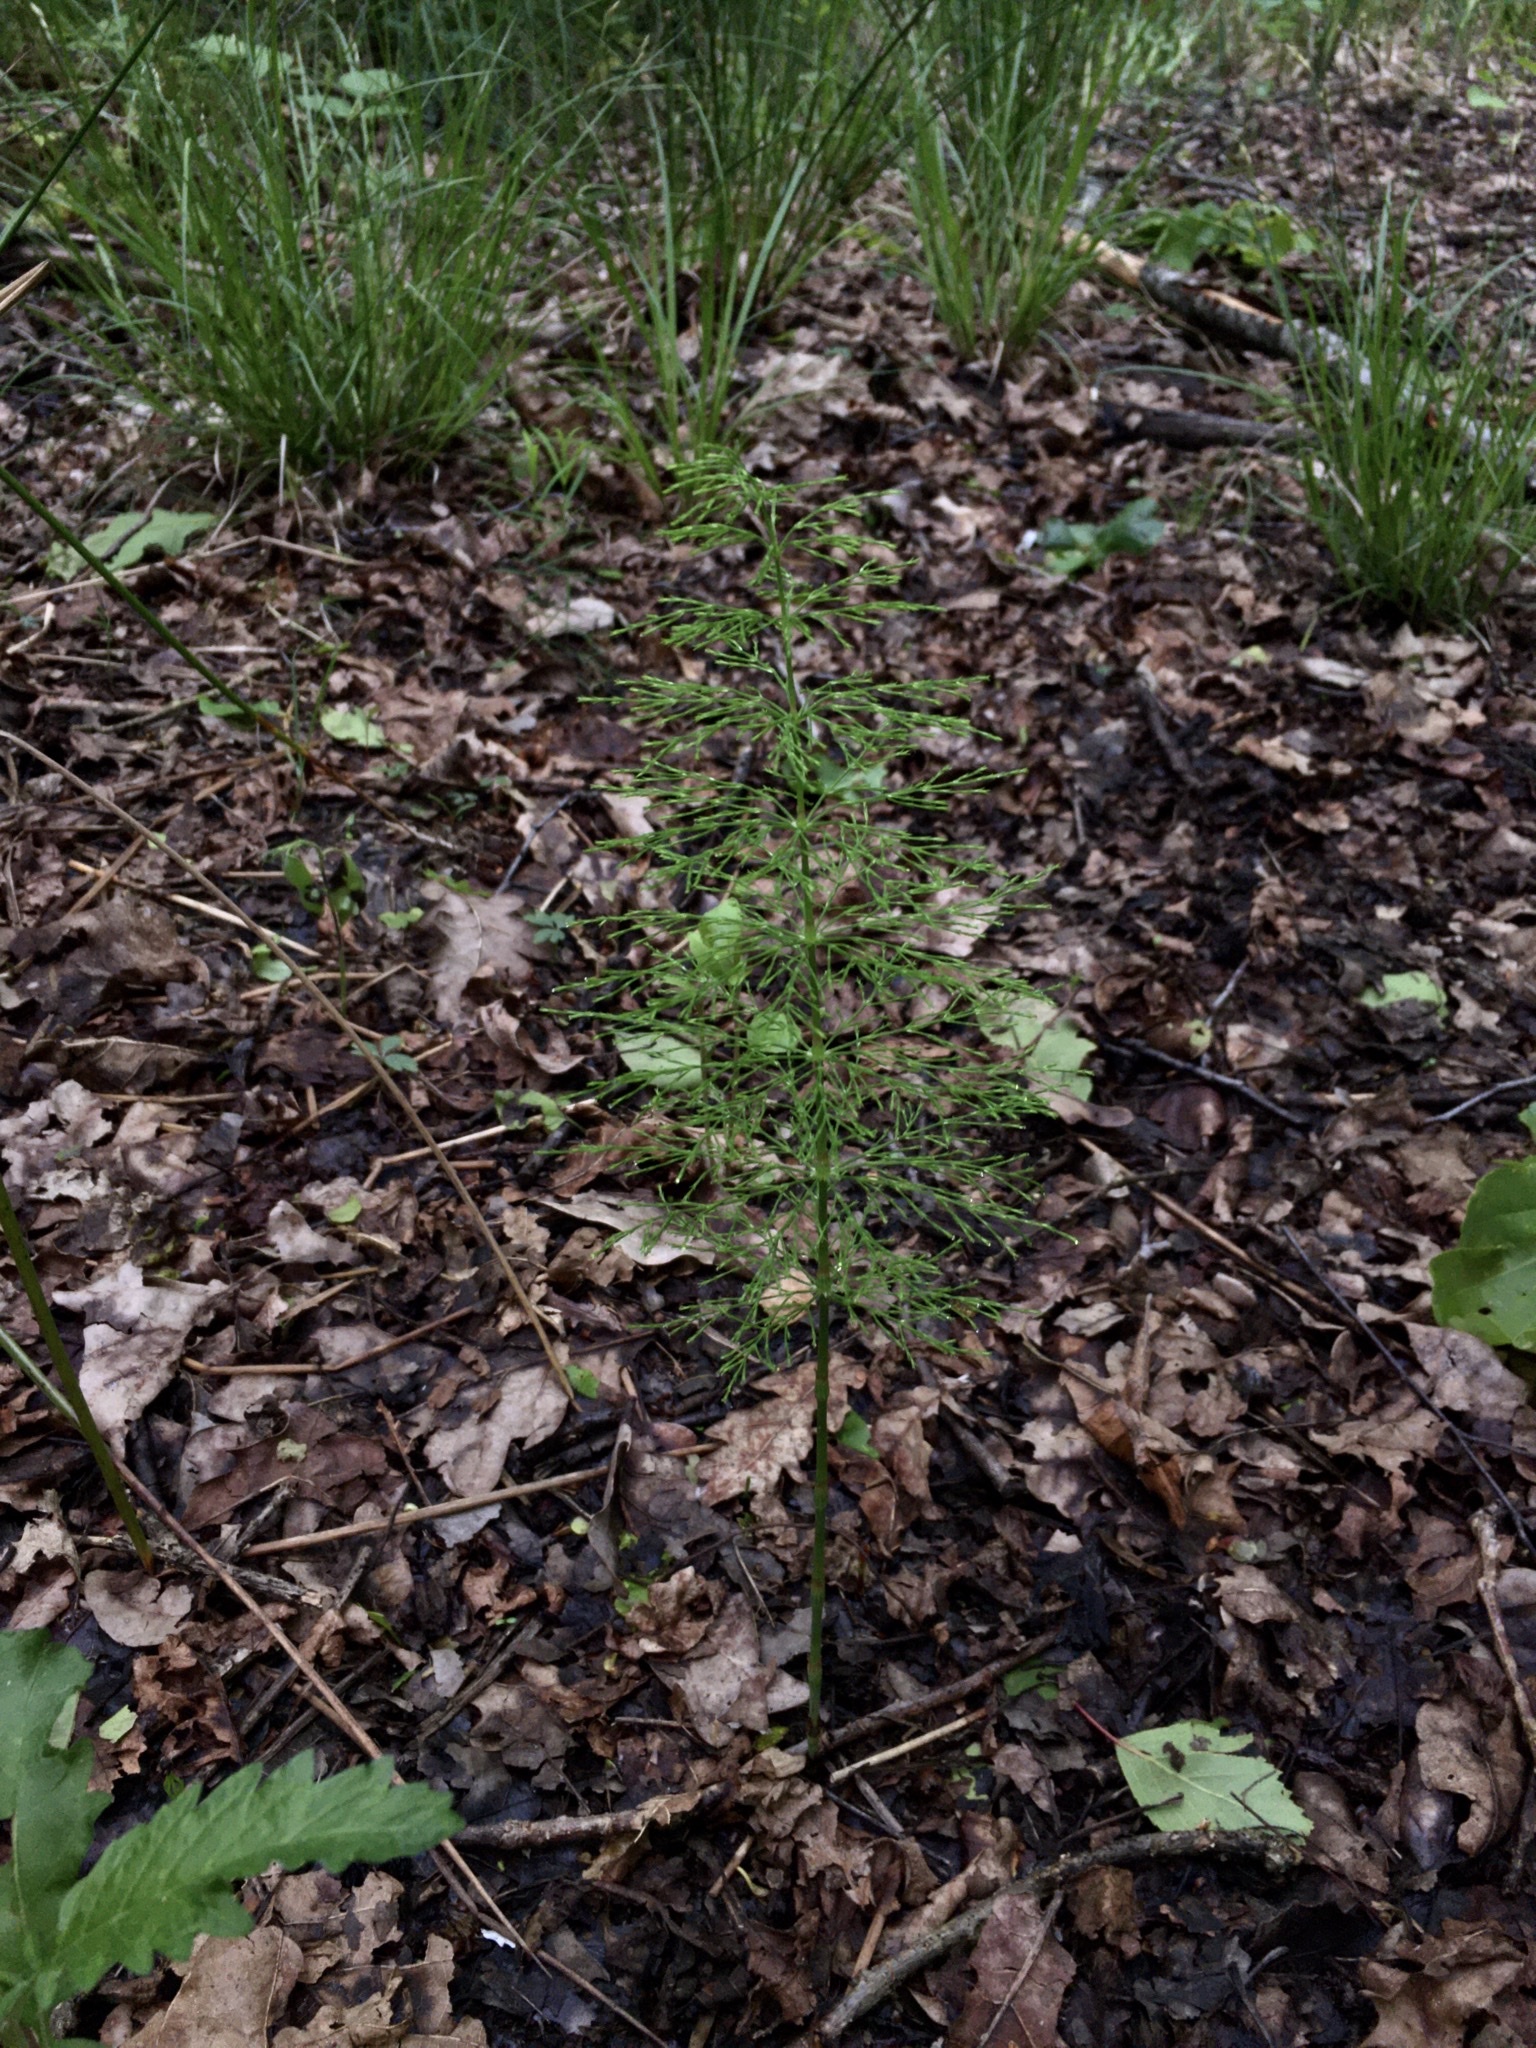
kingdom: Plantae
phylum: Tracheophyta
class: Polypodiopsida
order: Equisetales
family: Equisetaceae
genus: Equisetum
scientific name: Equisetum sylvaticum
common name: Wood horsetail
